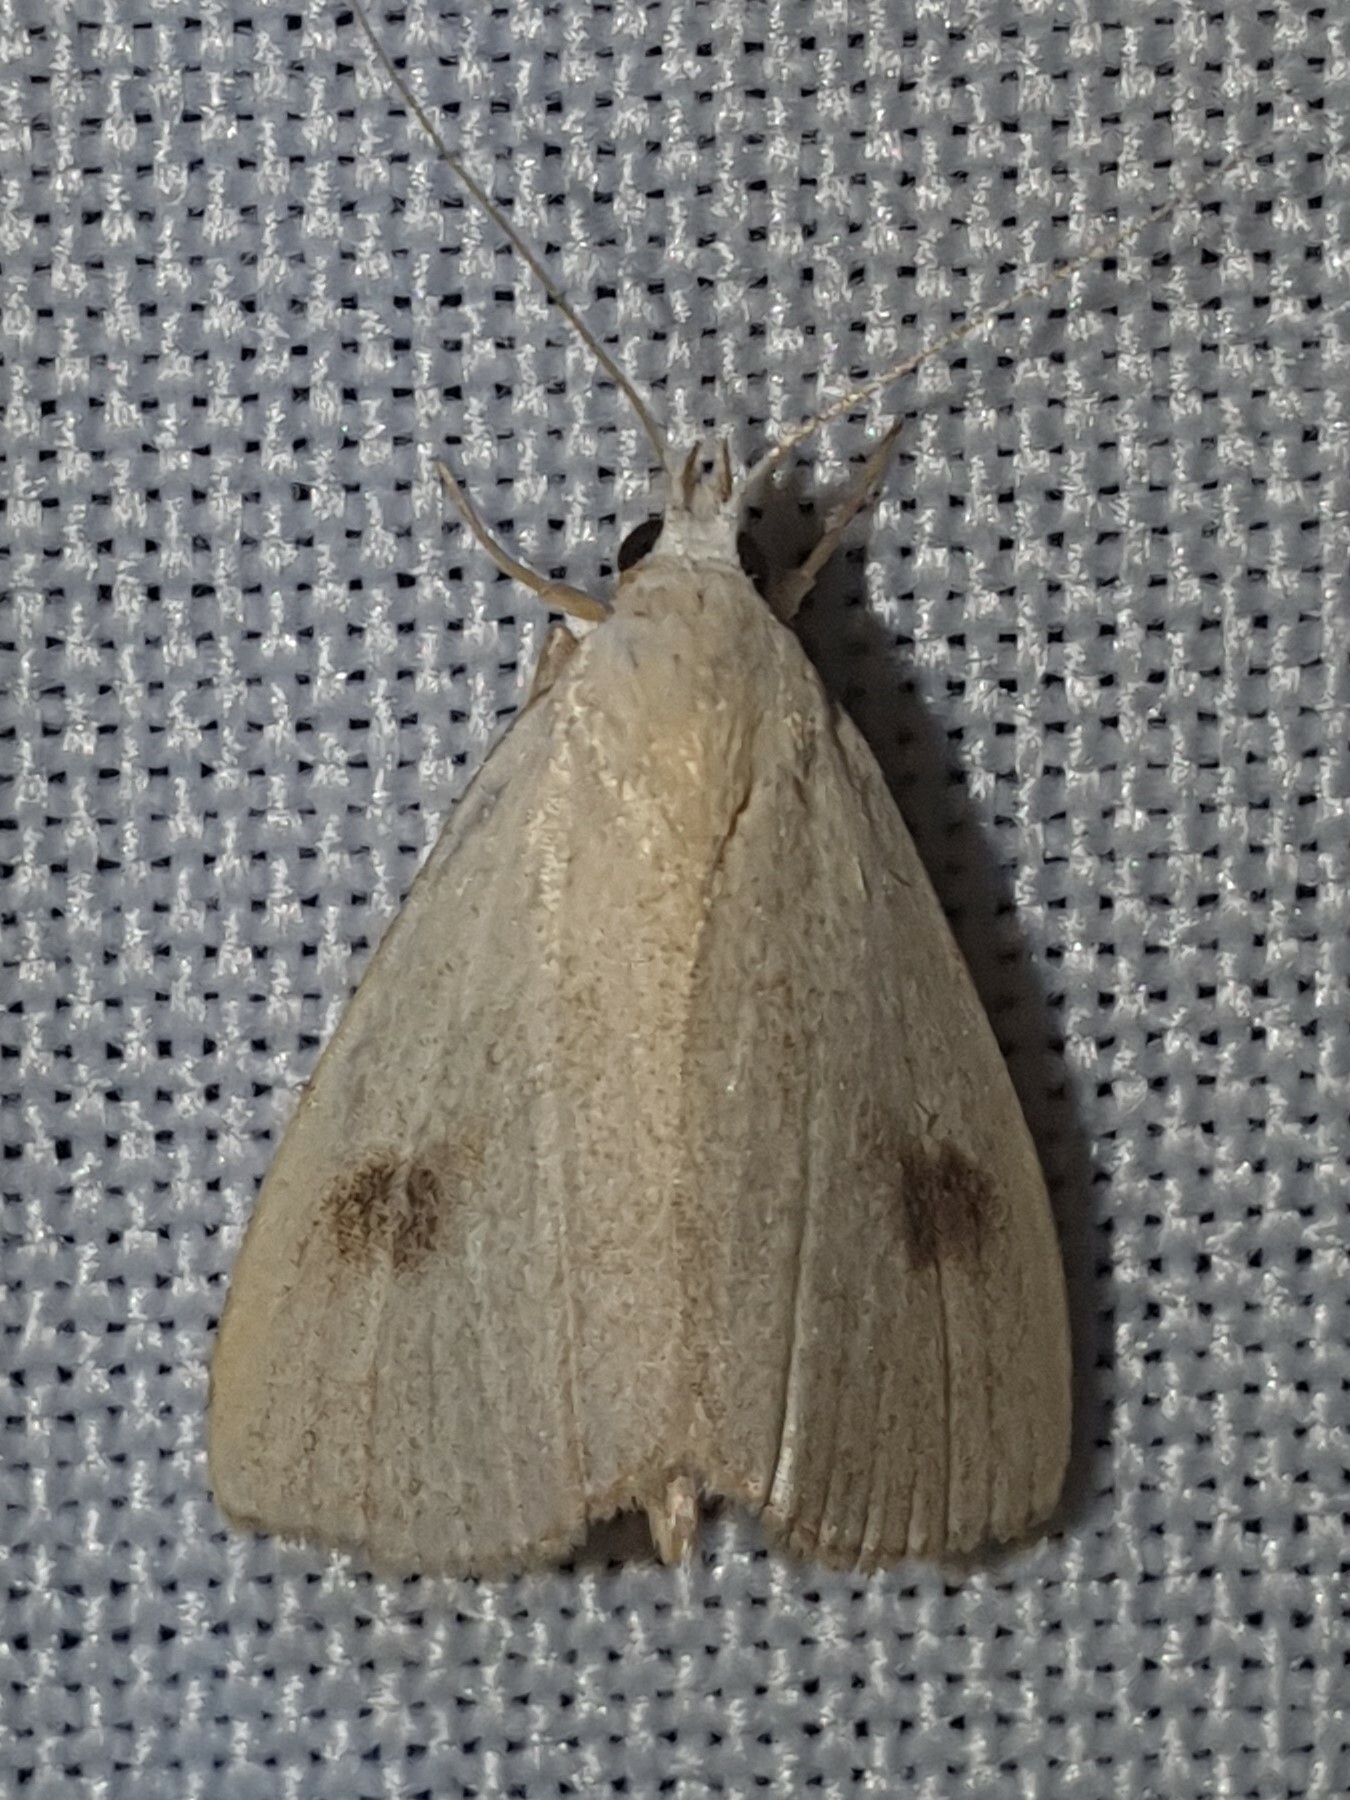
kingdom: Animalia
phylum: Arthropoda
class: Insecta
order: Lepidoptera
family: Erebidae
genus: Rivula
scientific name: Rivula sericealis
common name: Straw dot
